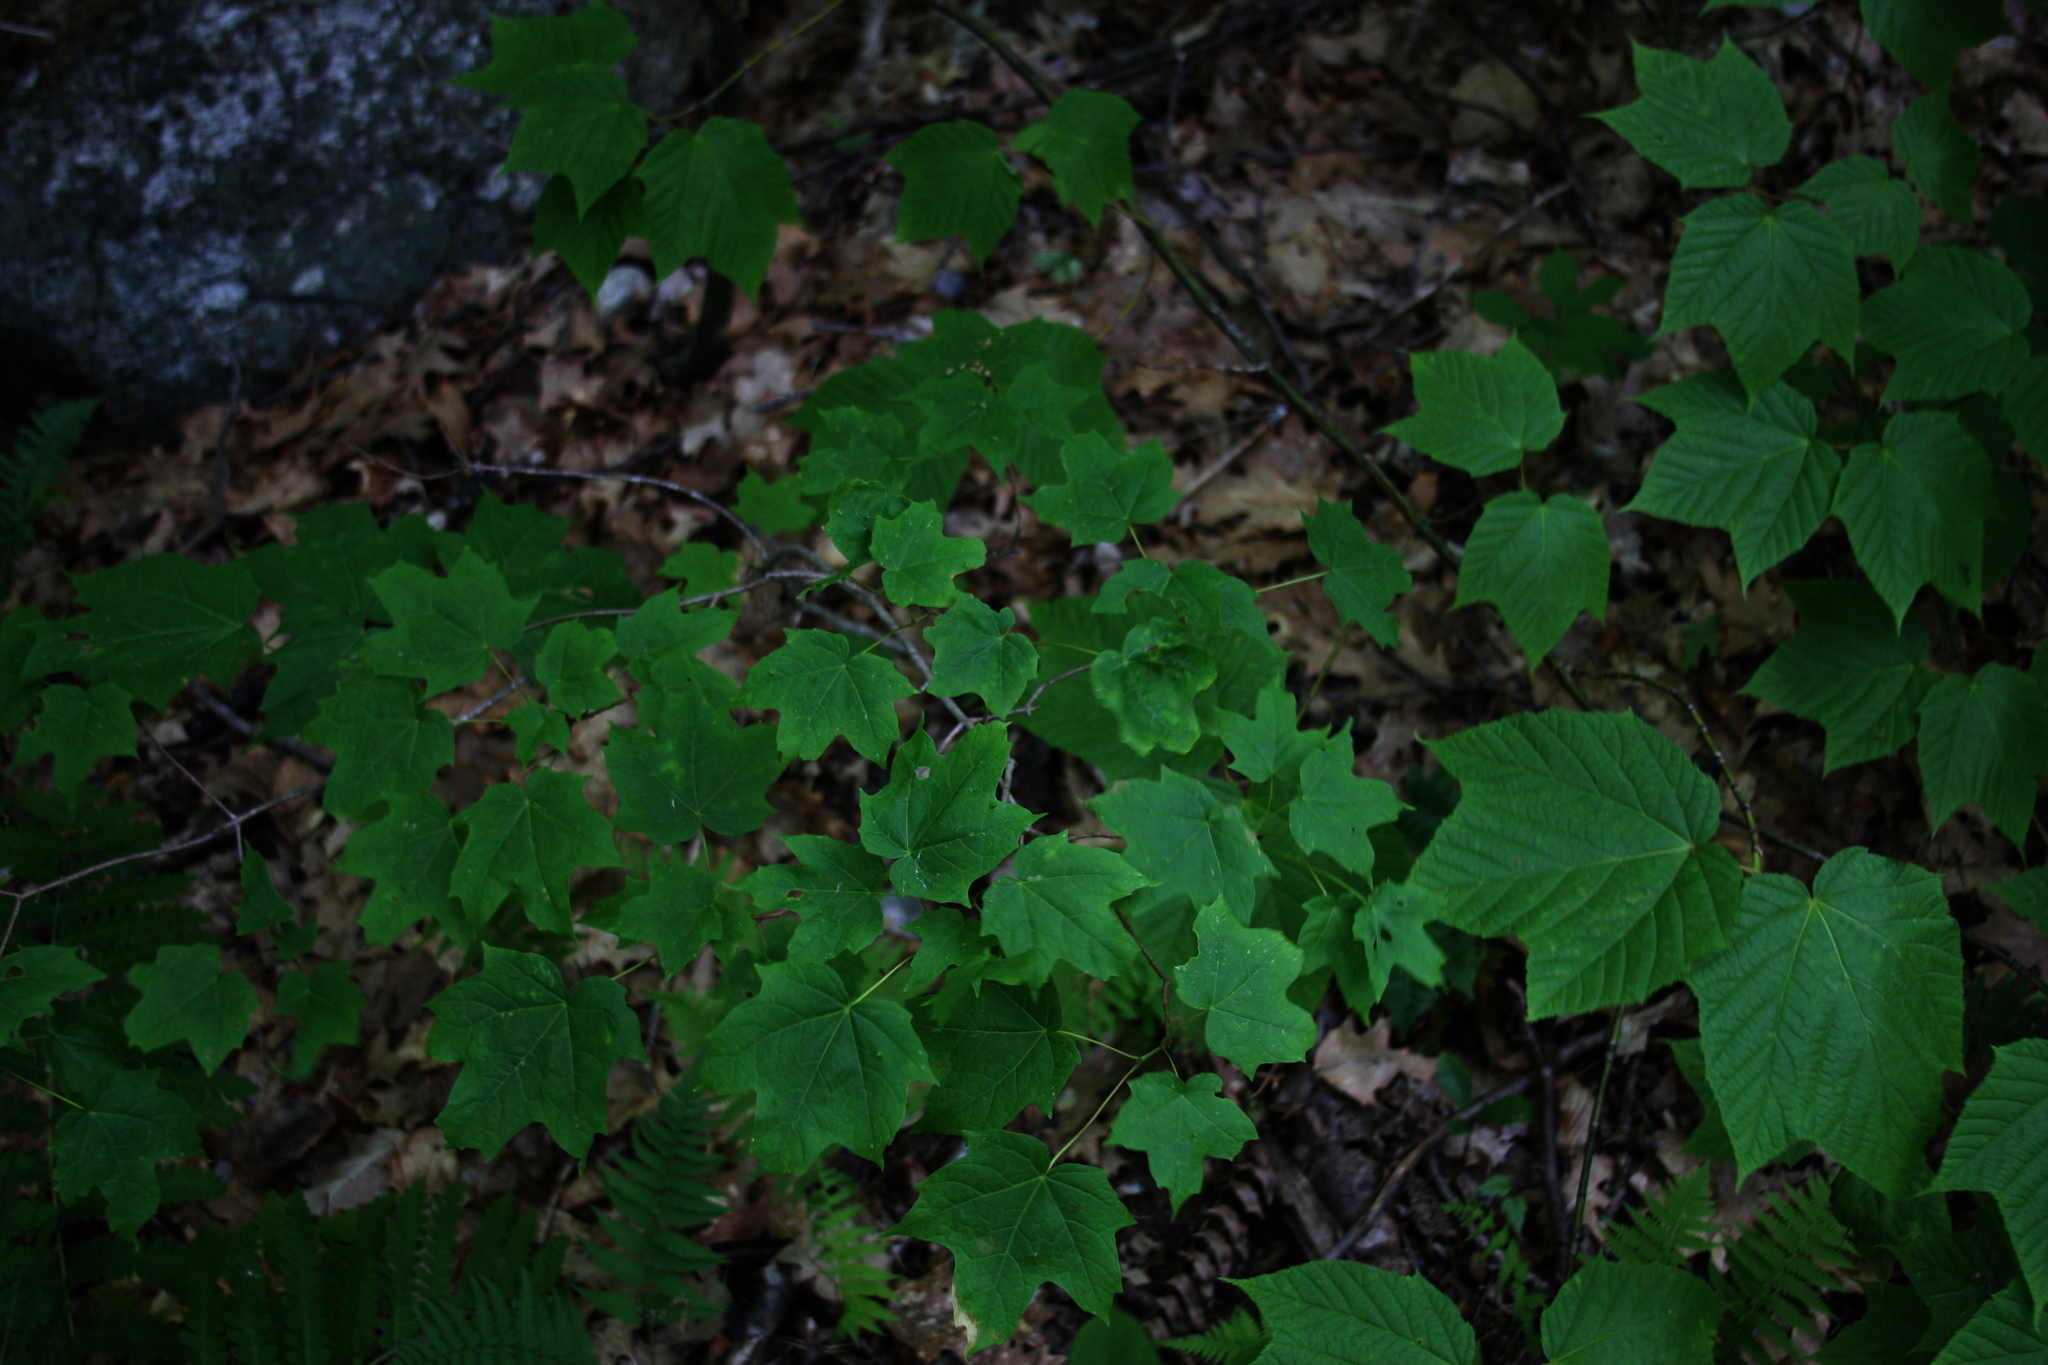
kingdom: Plantae
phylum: Tracheophyta
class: Magnoliopsida
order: Sapindales
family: Sapindaceae
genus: Acer
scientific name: Acer pensylvanicum
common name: Moosewood
